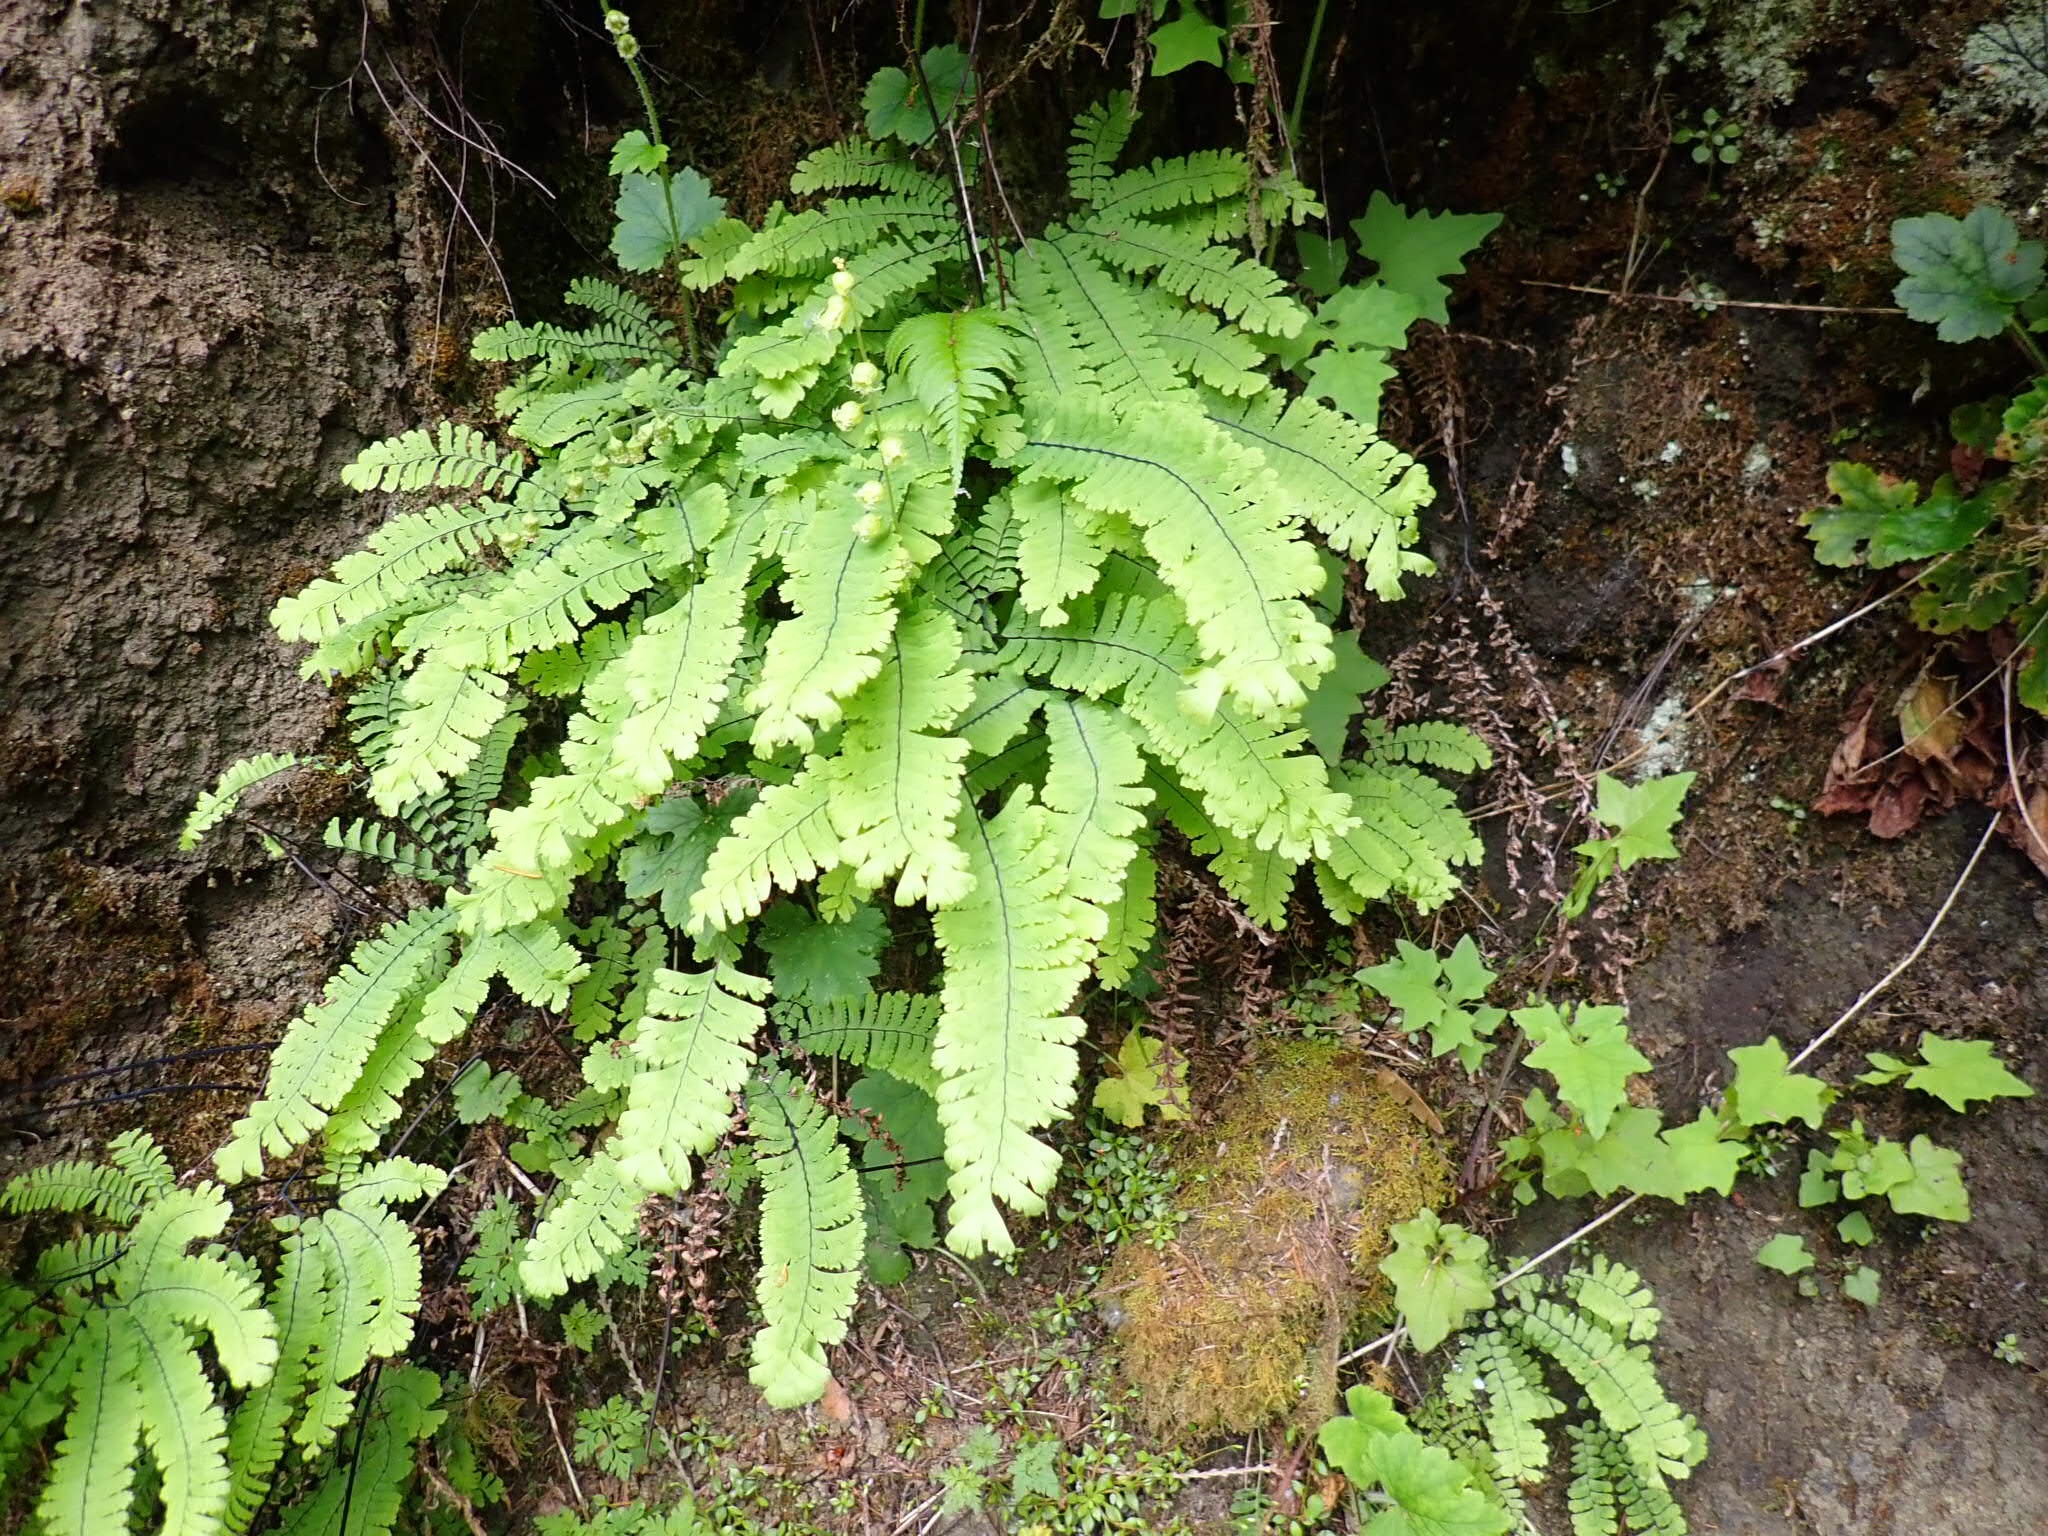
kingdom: Plantae
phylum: Tracheophyta
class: Polypodiopsida
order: Polypodiales
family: Pteridaceae
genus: Adiantum
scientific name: Adiantum aleuticum
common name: Aleutian maidenhair fern
